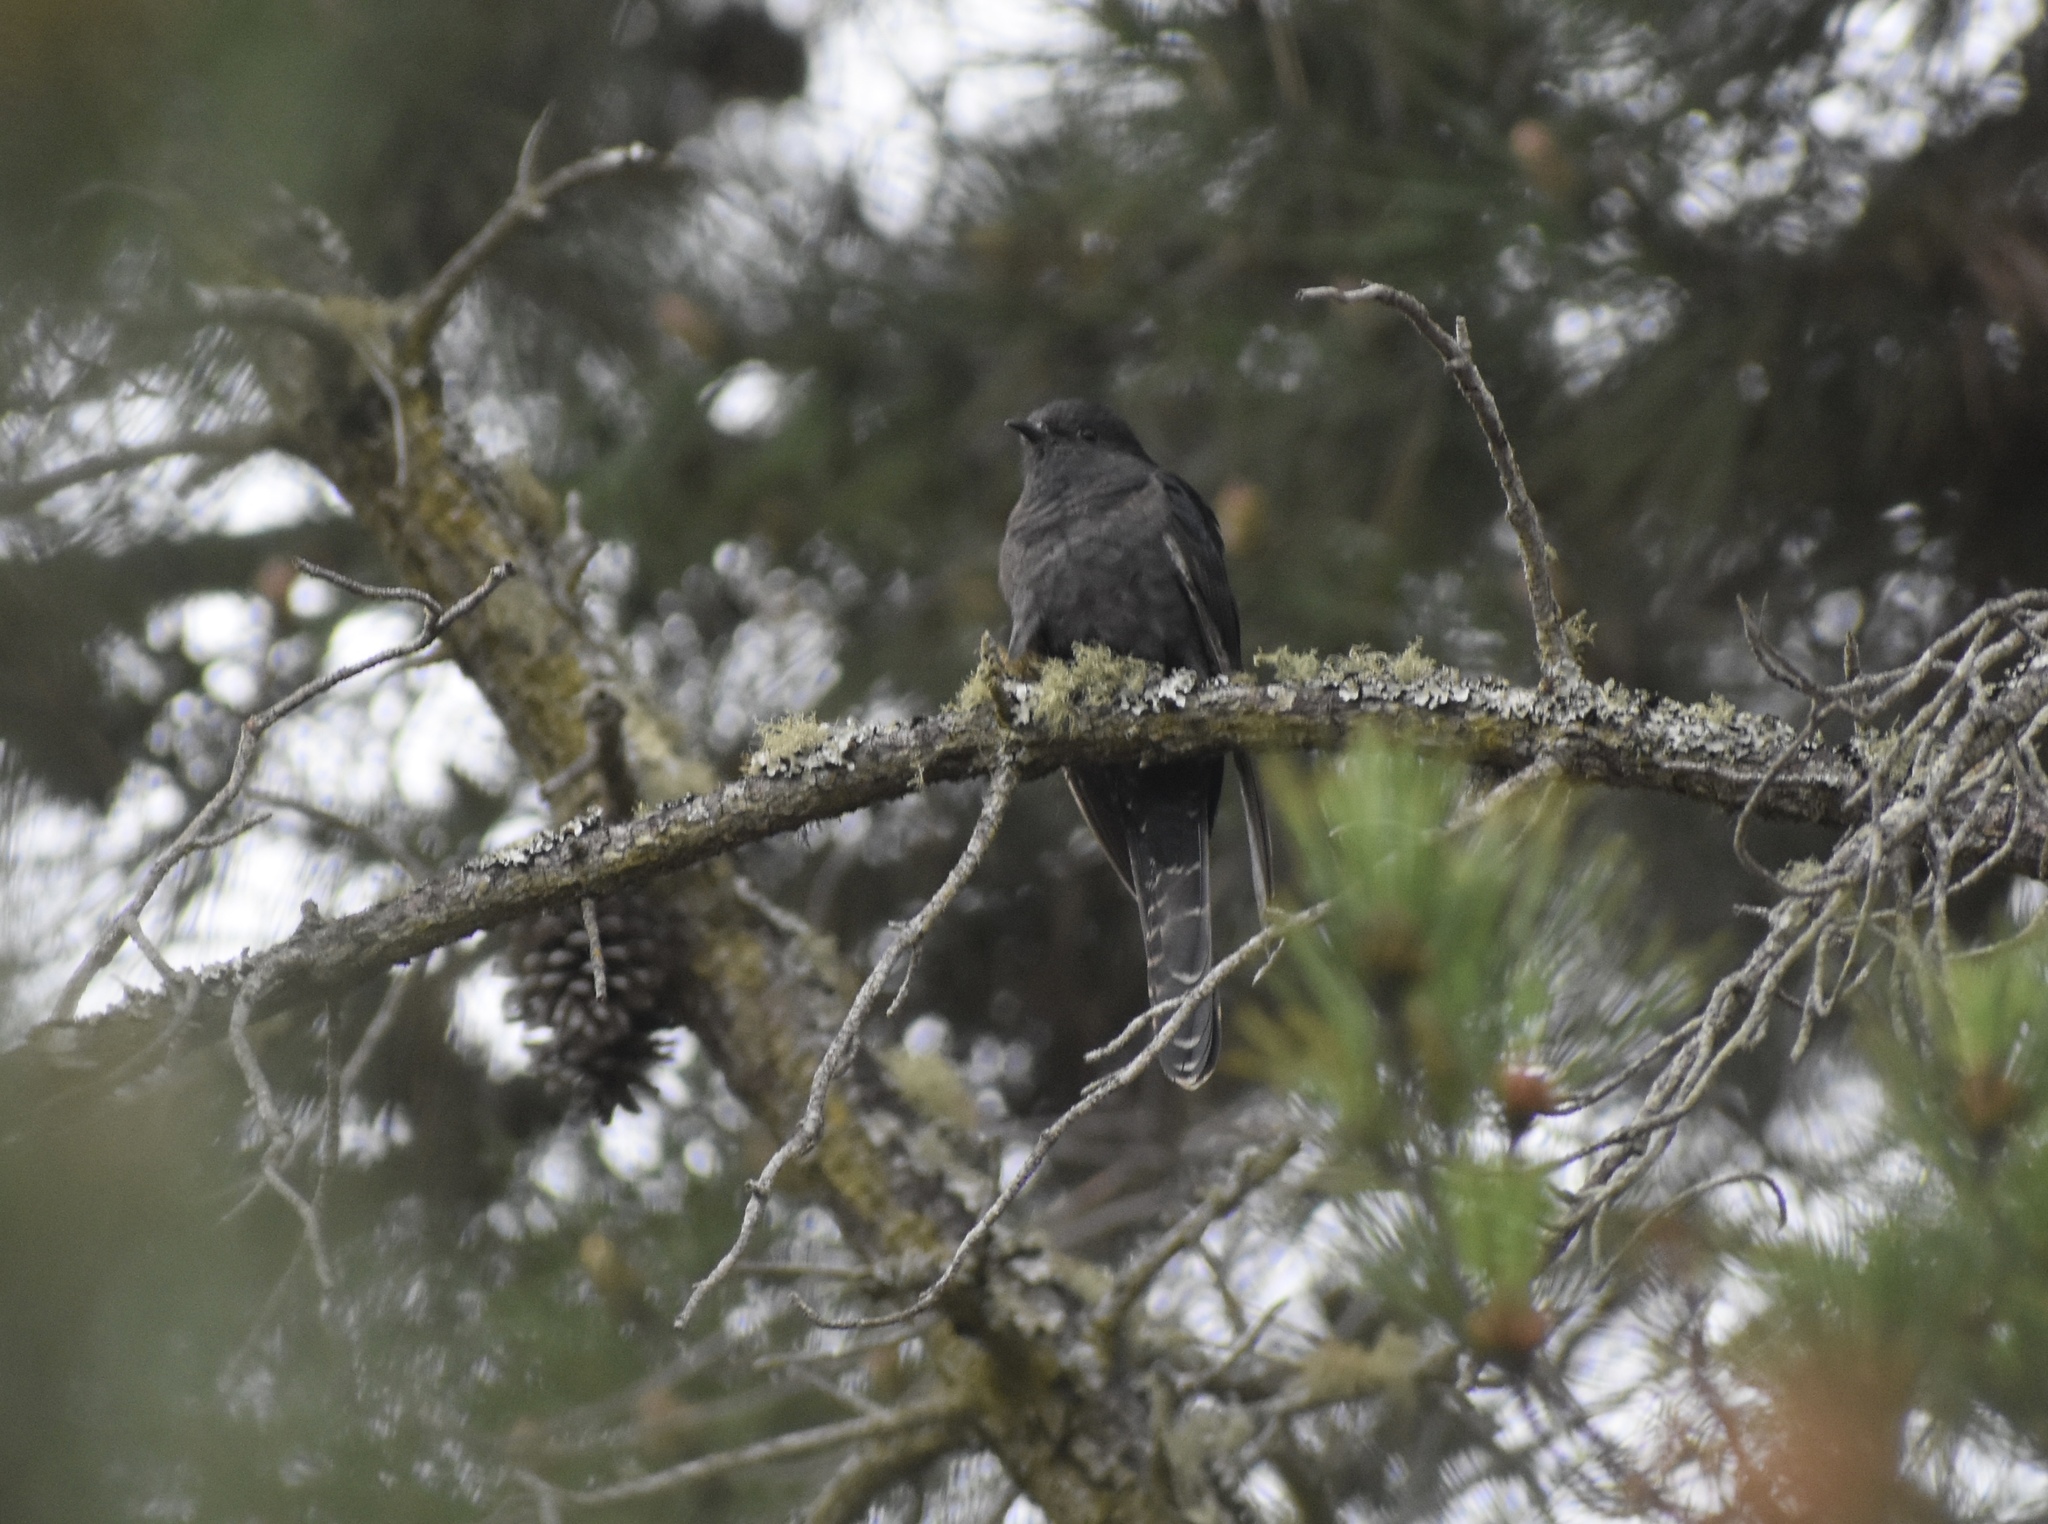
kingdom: Animalia
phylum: Chordata
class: Aves
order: Cuculiformes
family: Cuculidae
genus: Cuculus
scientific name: Cuculus clamosus
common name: Black cuckoo
